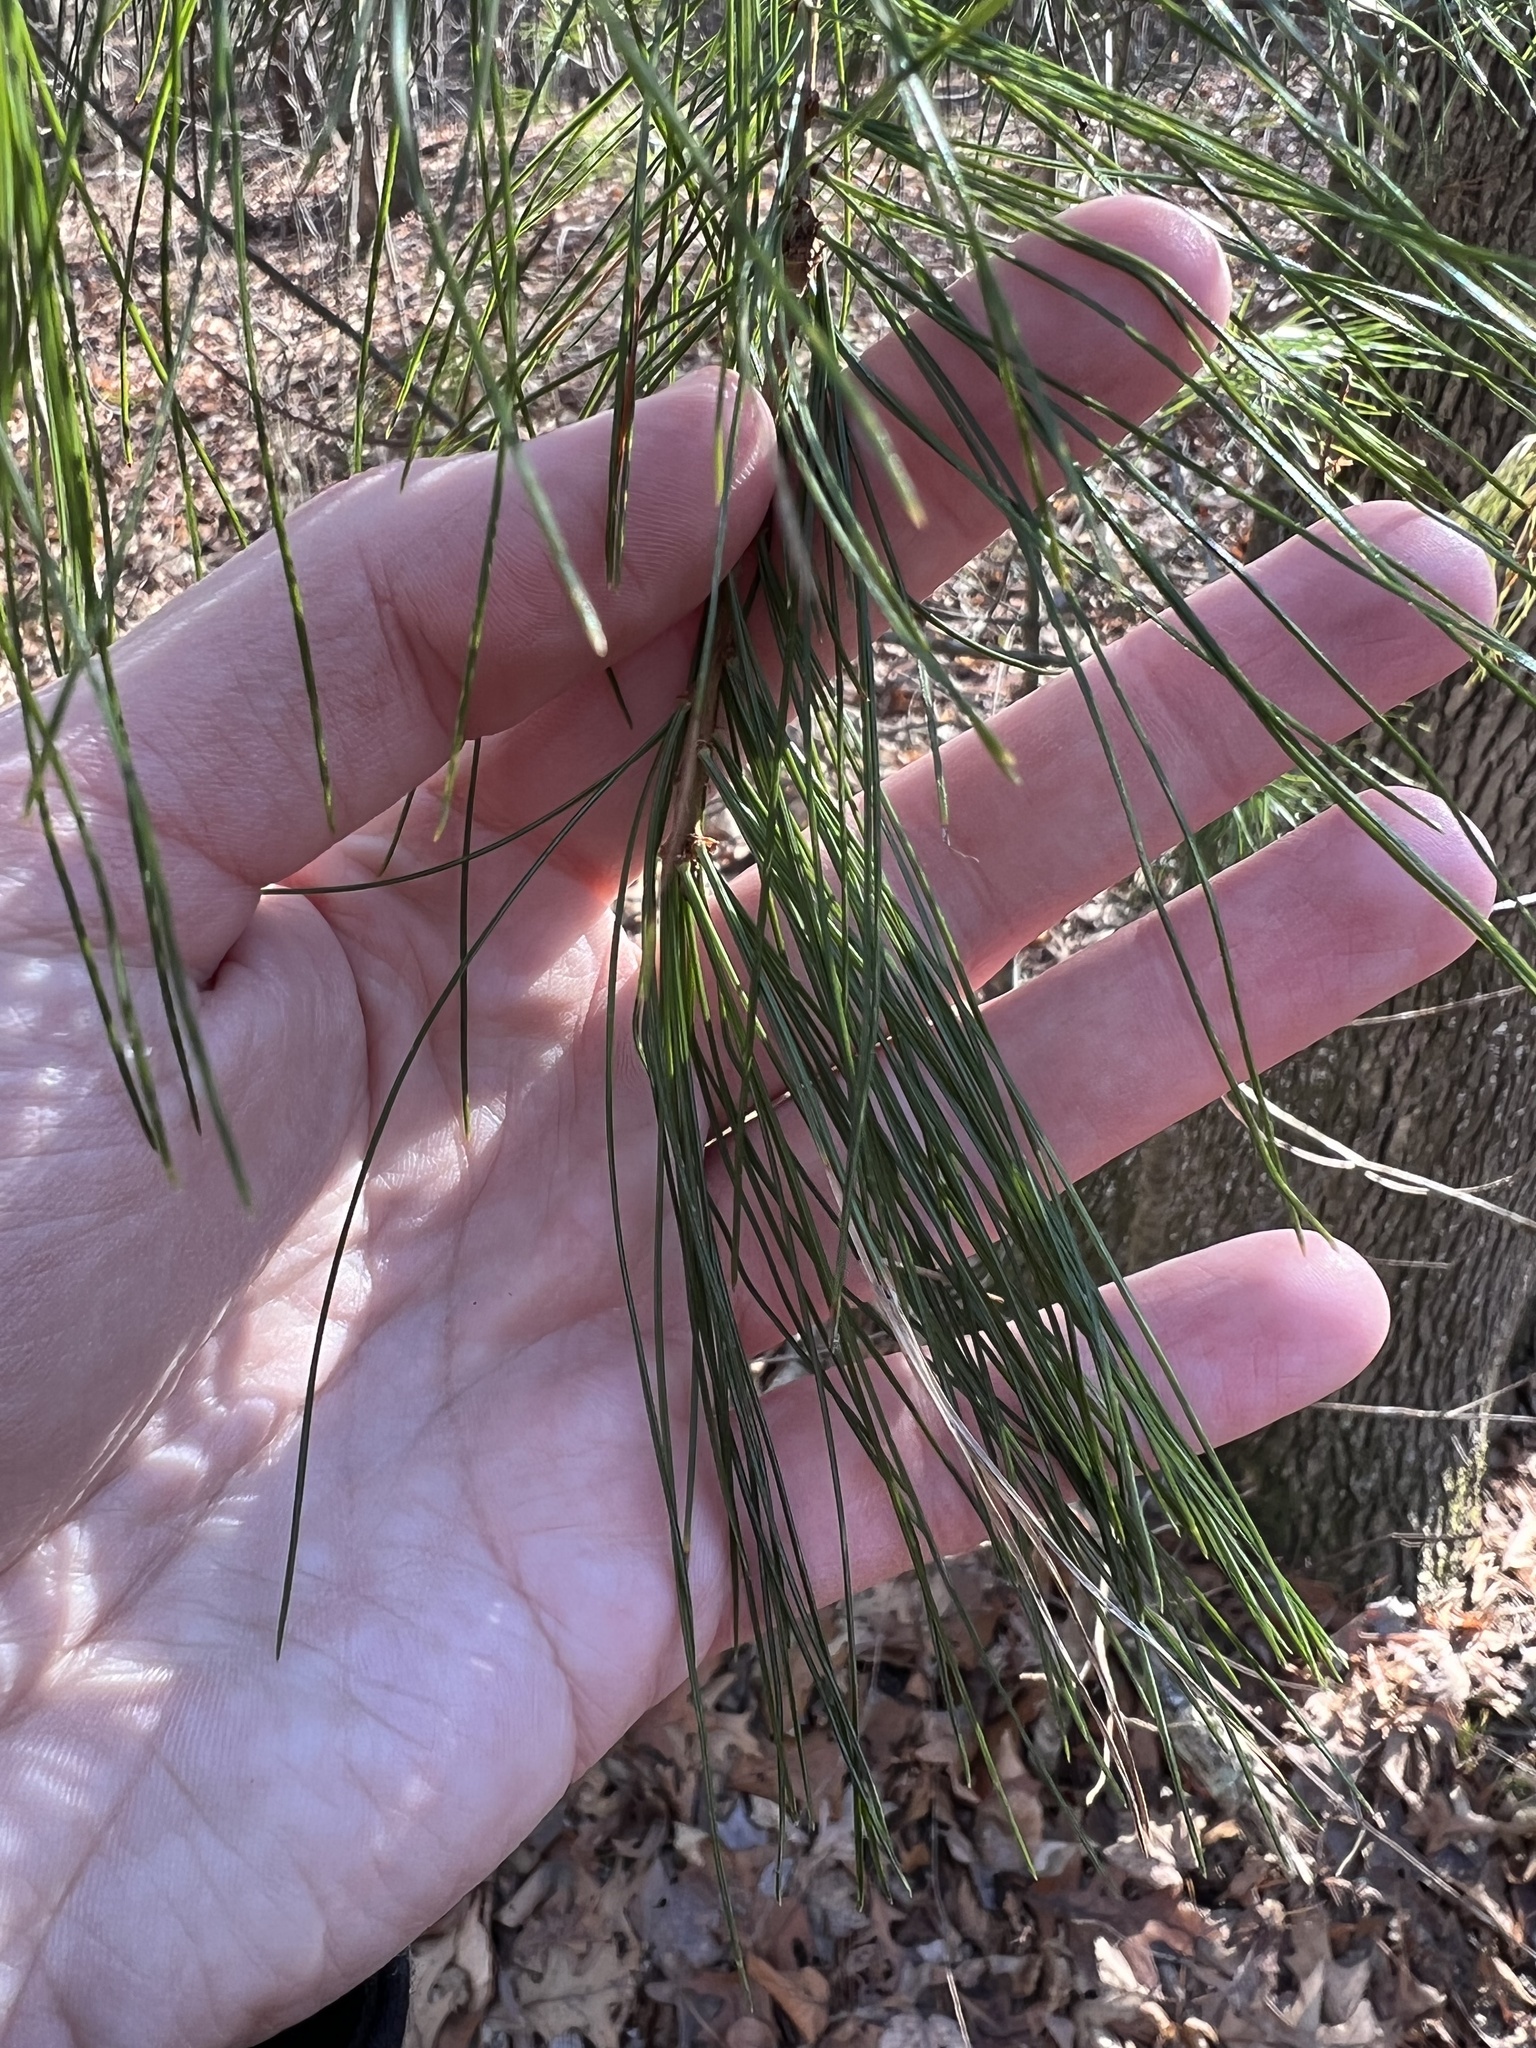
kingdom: Plantae
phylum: Tracheophyta
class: Pinopsida
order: Pinales
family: Pinaceae
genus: Pinus
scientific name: Pinus strobus
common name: Weymouth pine
